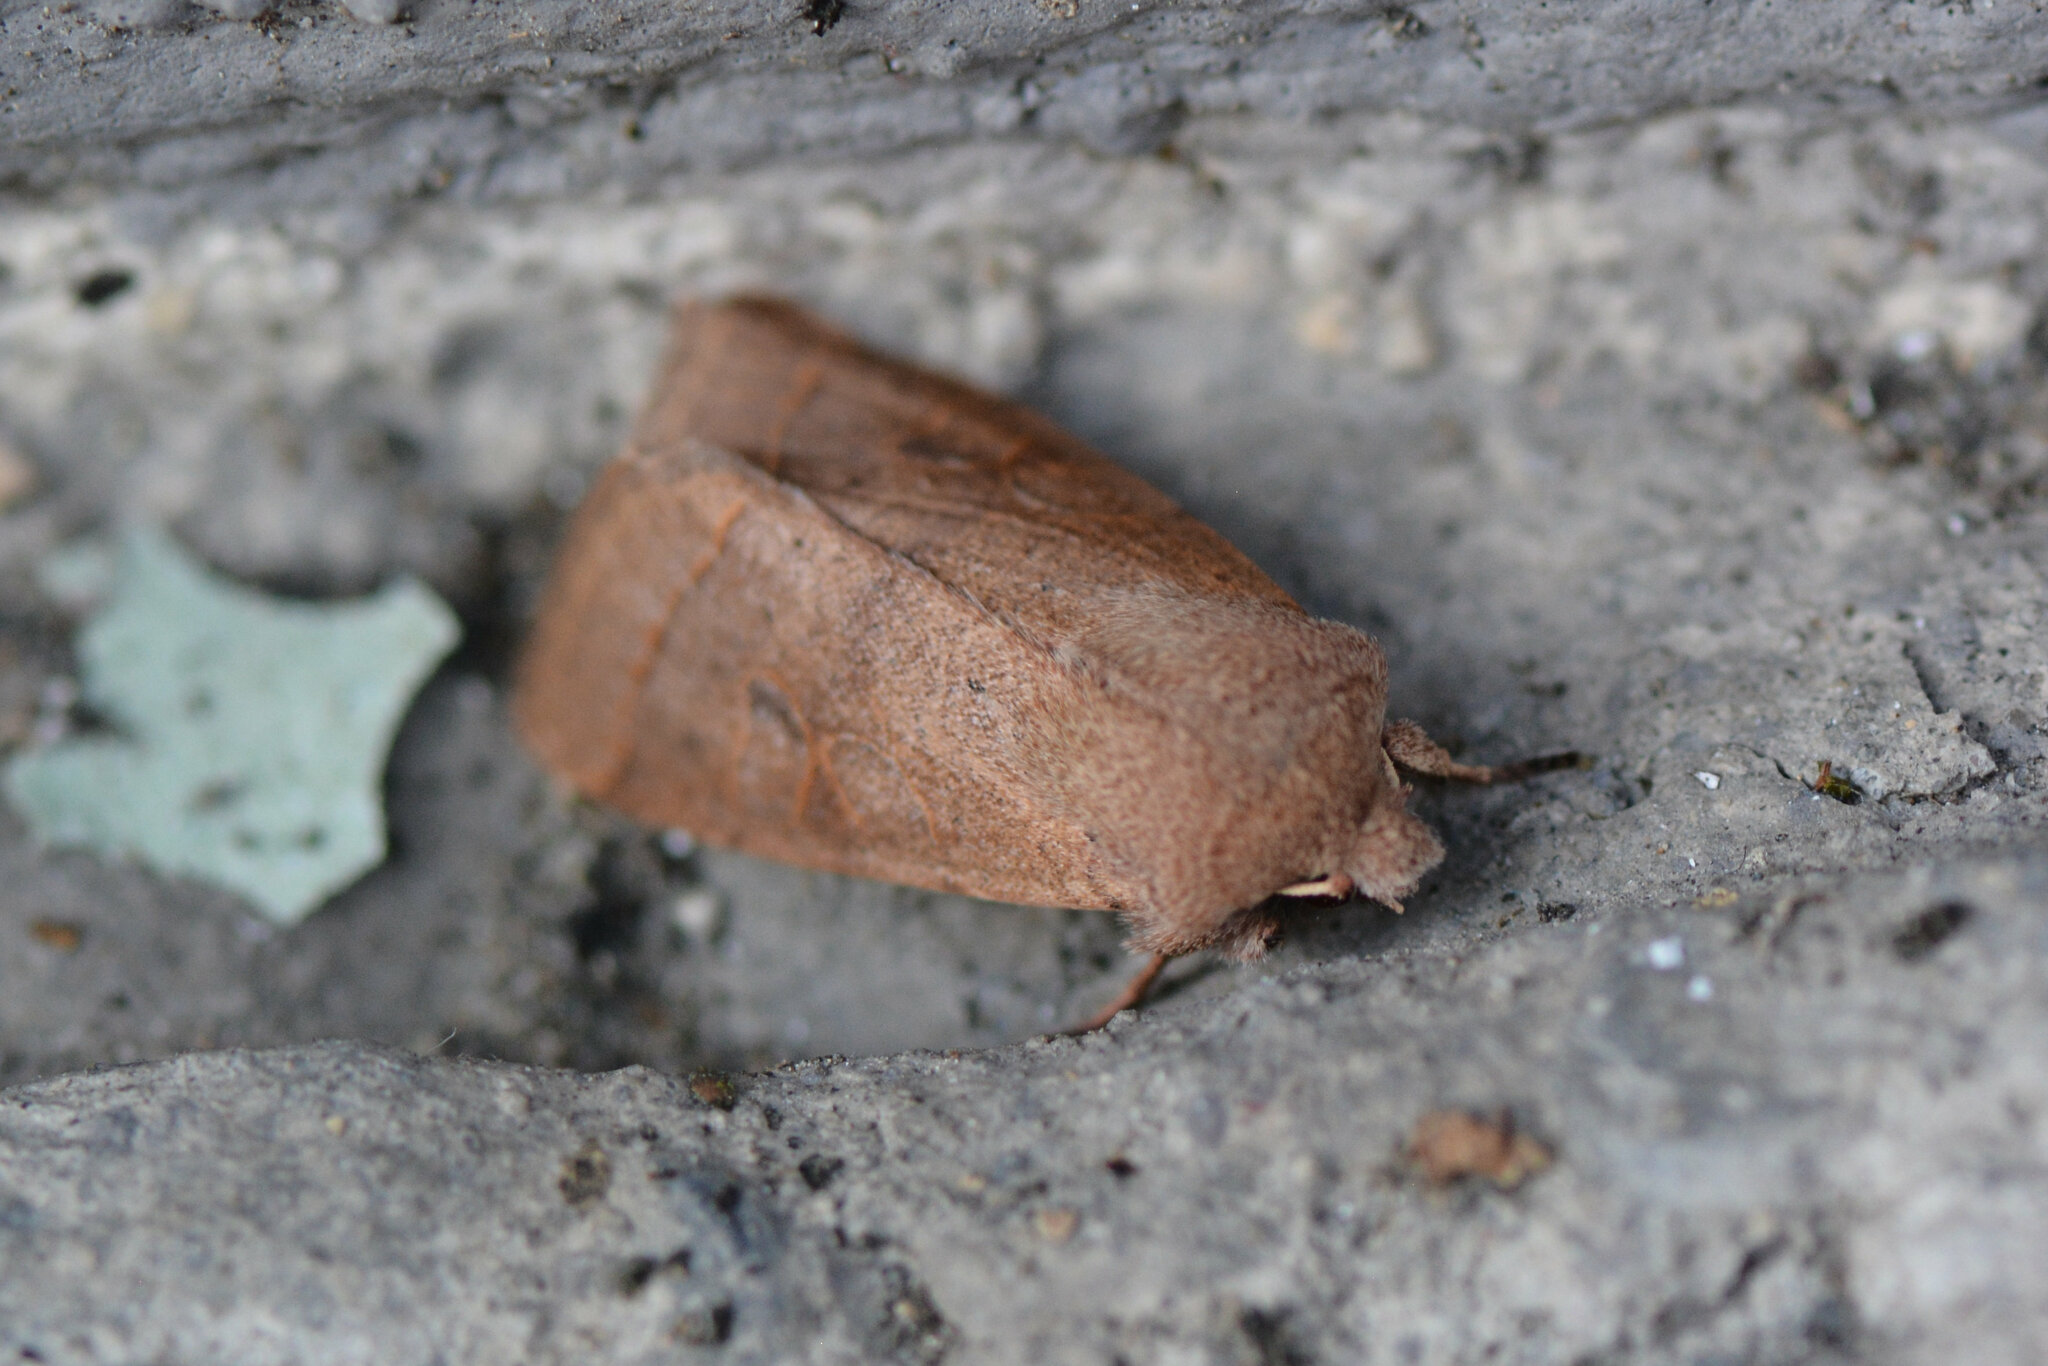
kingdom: Animalia
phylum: Arthropoda
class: Insecta
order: Lepidoptera
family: Noctuidae
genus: Orthosia
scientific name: Orthosia cerasi
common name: Common quaker
